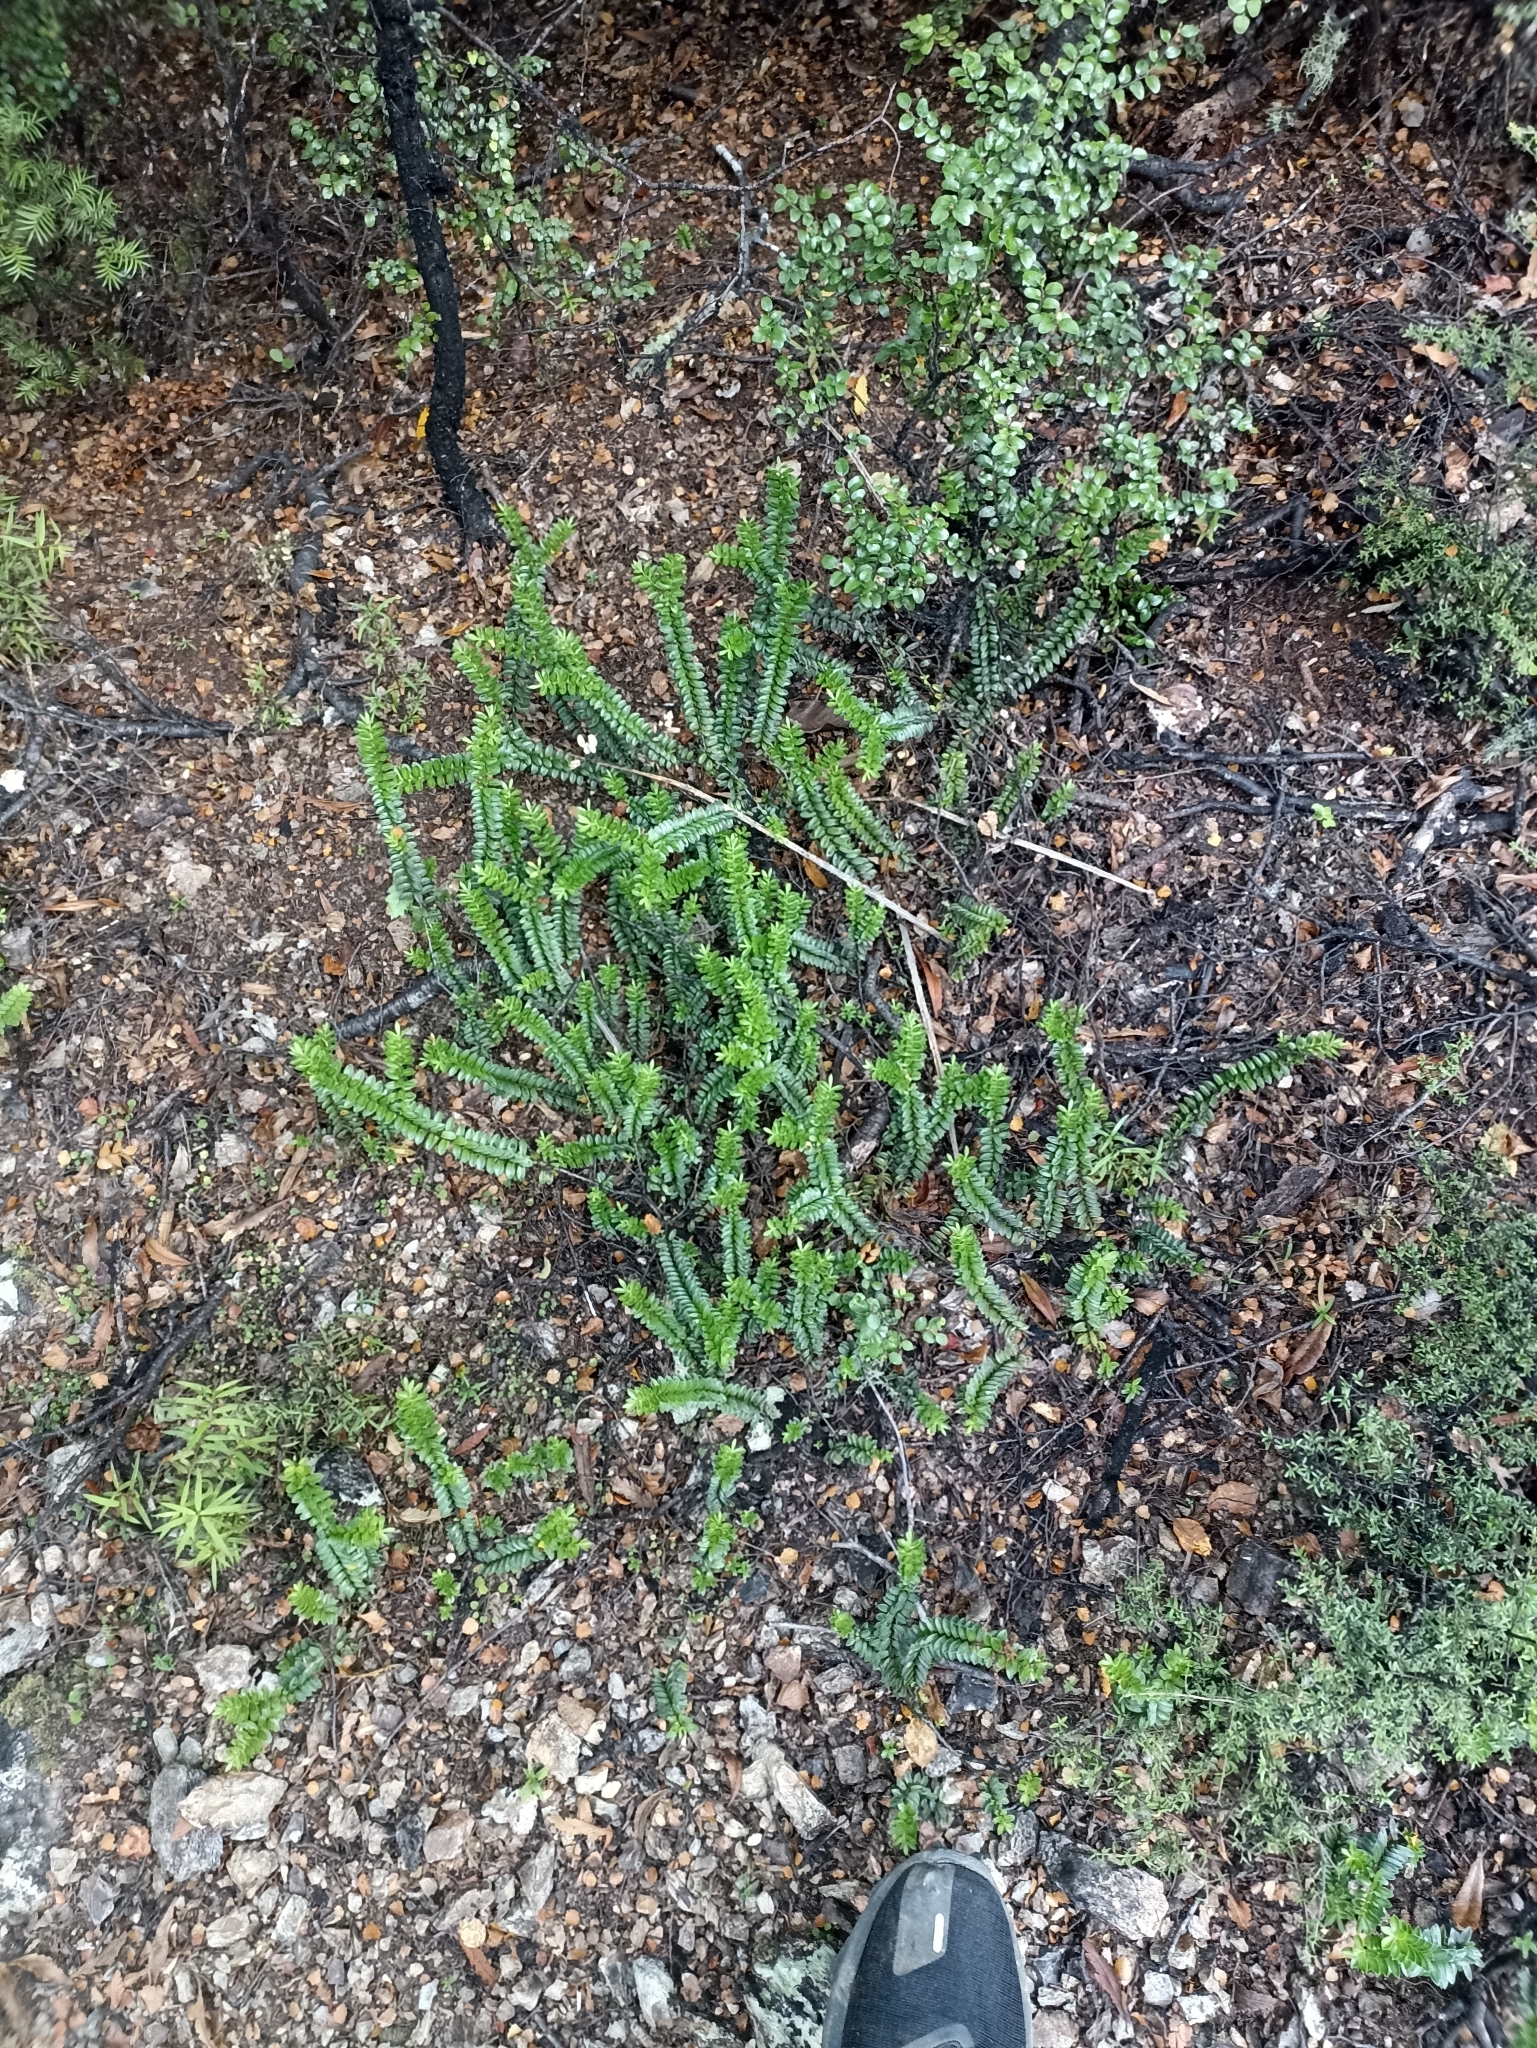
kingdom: Plantae
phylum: Tracheophyta
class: Magnoliopsida
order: Lamiales
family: Plantaginaceae
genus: Veronica
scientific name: Veronica vernicosa
